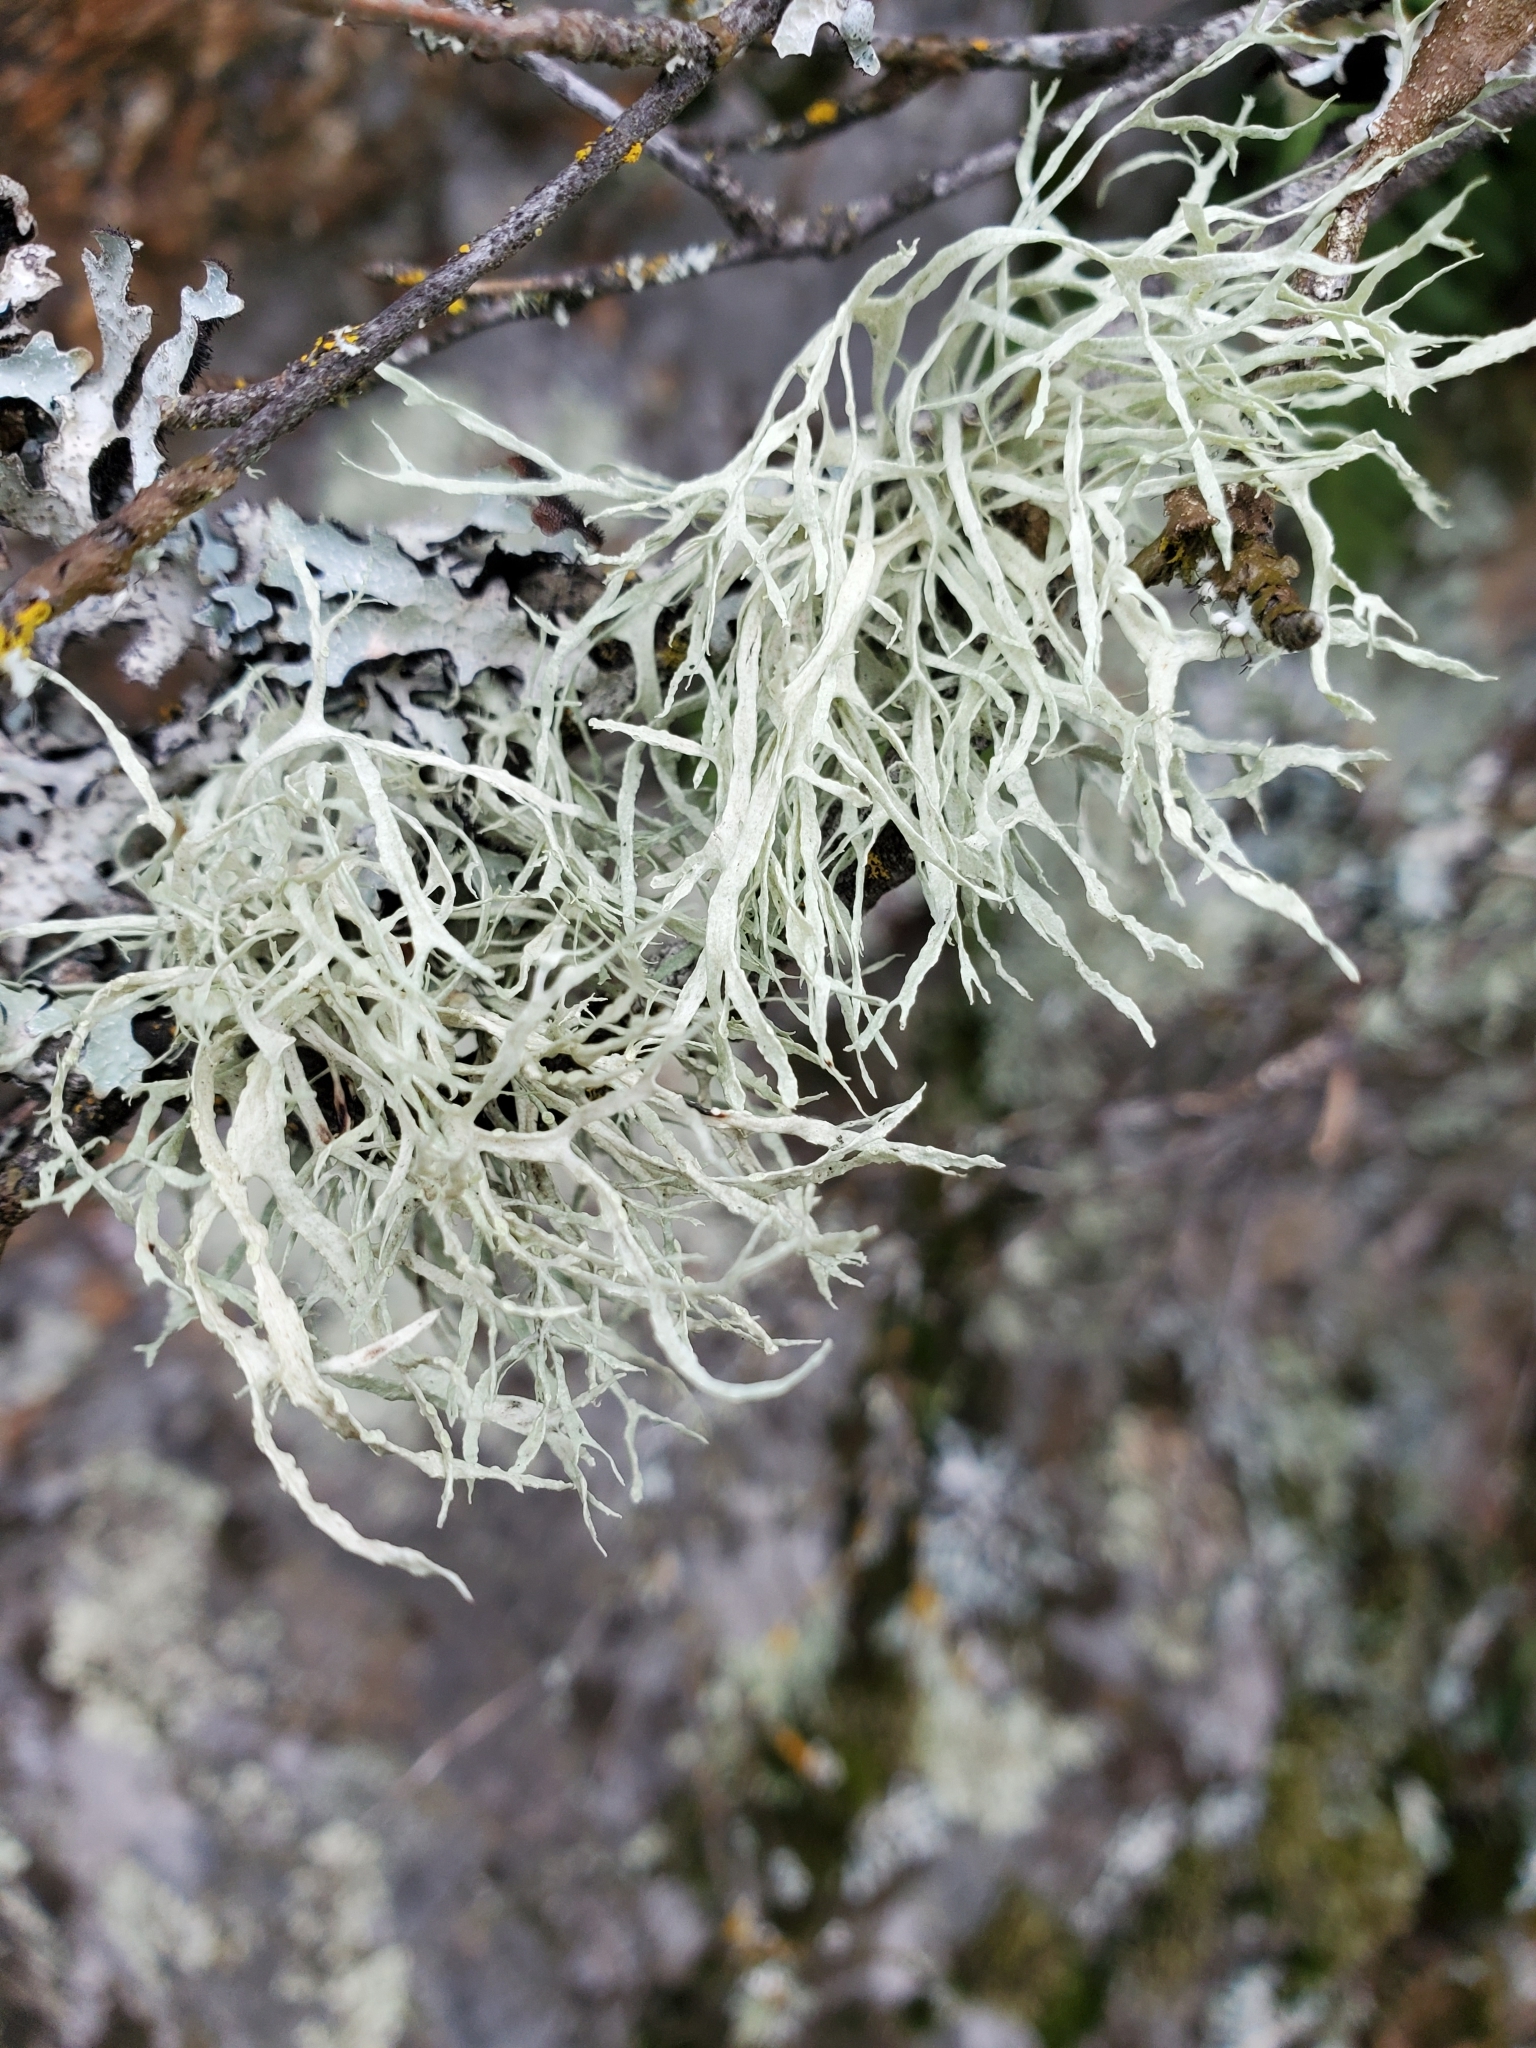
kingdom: Fungi
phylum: Ascomycota
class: Lecanoromycetes
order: Lecanorales
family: Ramalinaceae
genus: Ramalina
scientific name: Ramalina farinacea
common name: Farinose cartilage lichen
